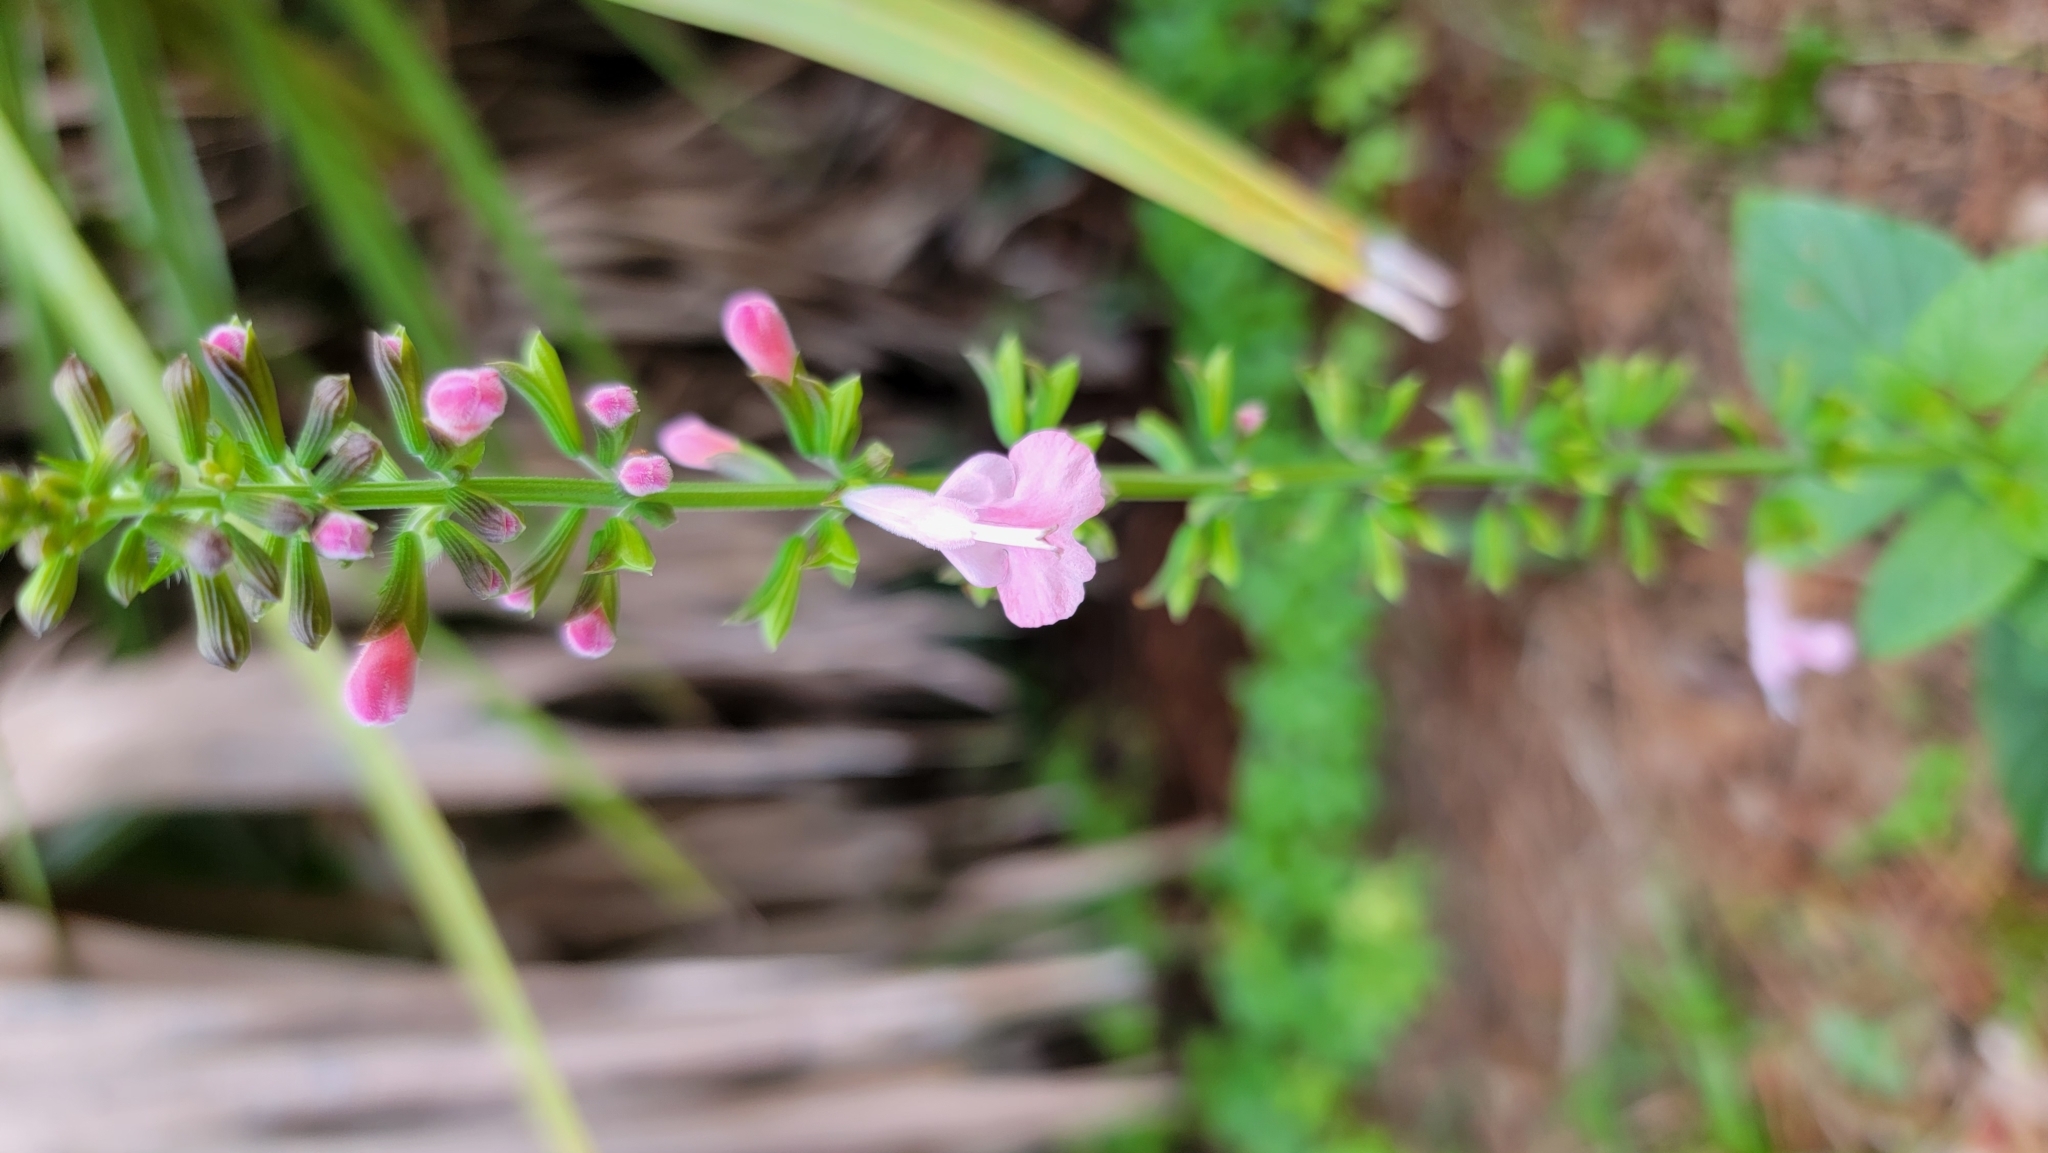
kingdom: Plantae
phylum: Tracheophyta
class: Magnoliopsida
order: Lamiales
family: Lamiaceae
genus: Salvia
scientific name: Salvia coccinea
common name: Blood sage
